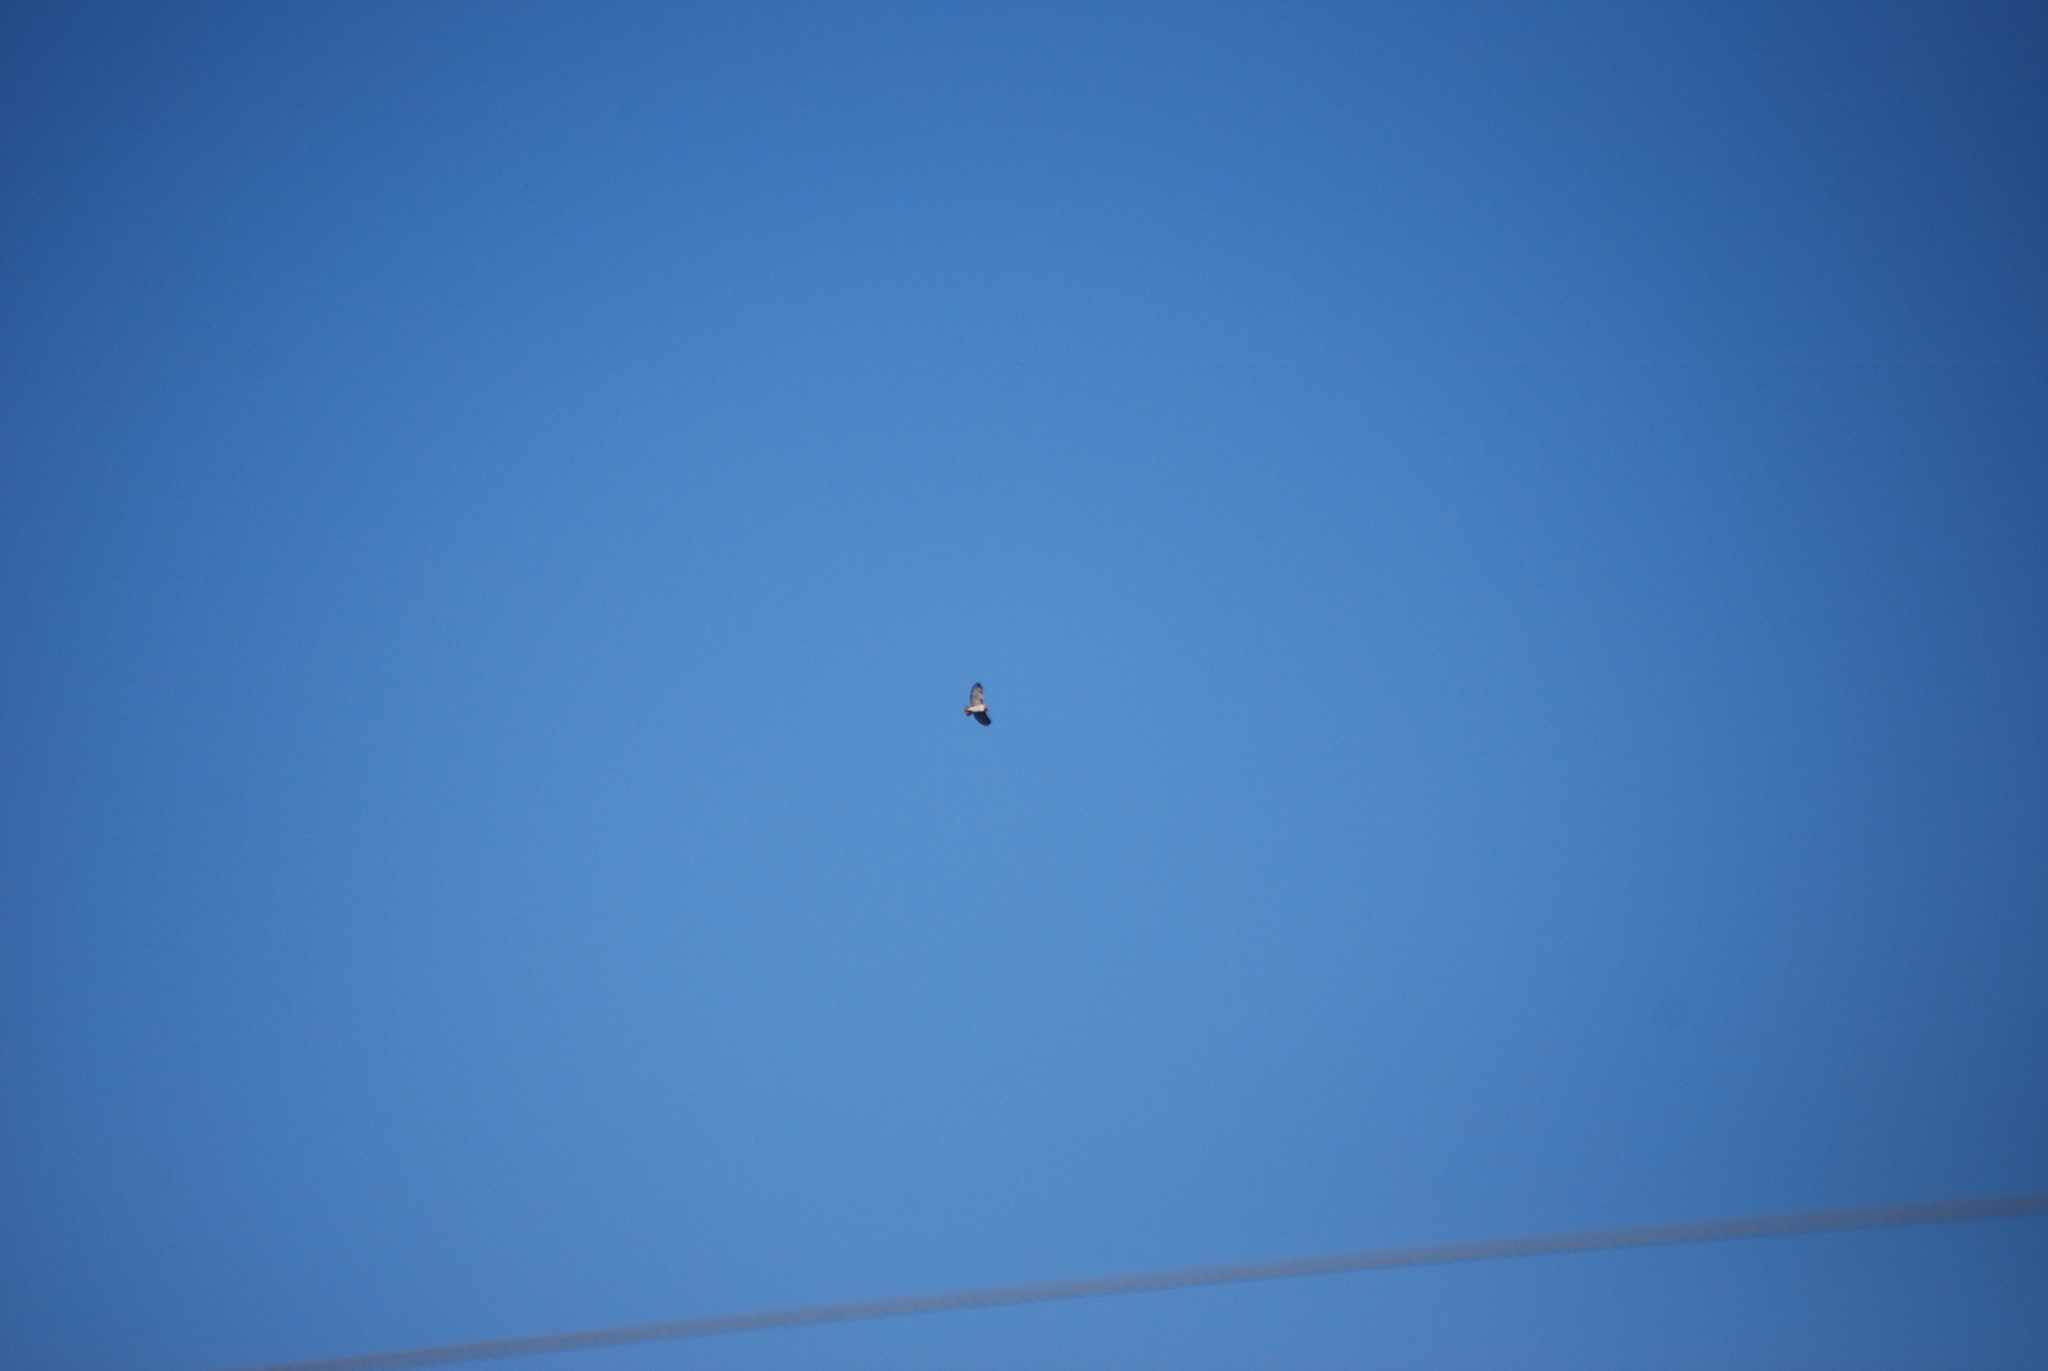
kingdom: Animalia
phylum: Chordata
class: Aves
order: Accipitriformes
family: Accipitridae
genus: Buteo
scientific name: Buteo jamaicensis
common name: Red-tailed hawk
